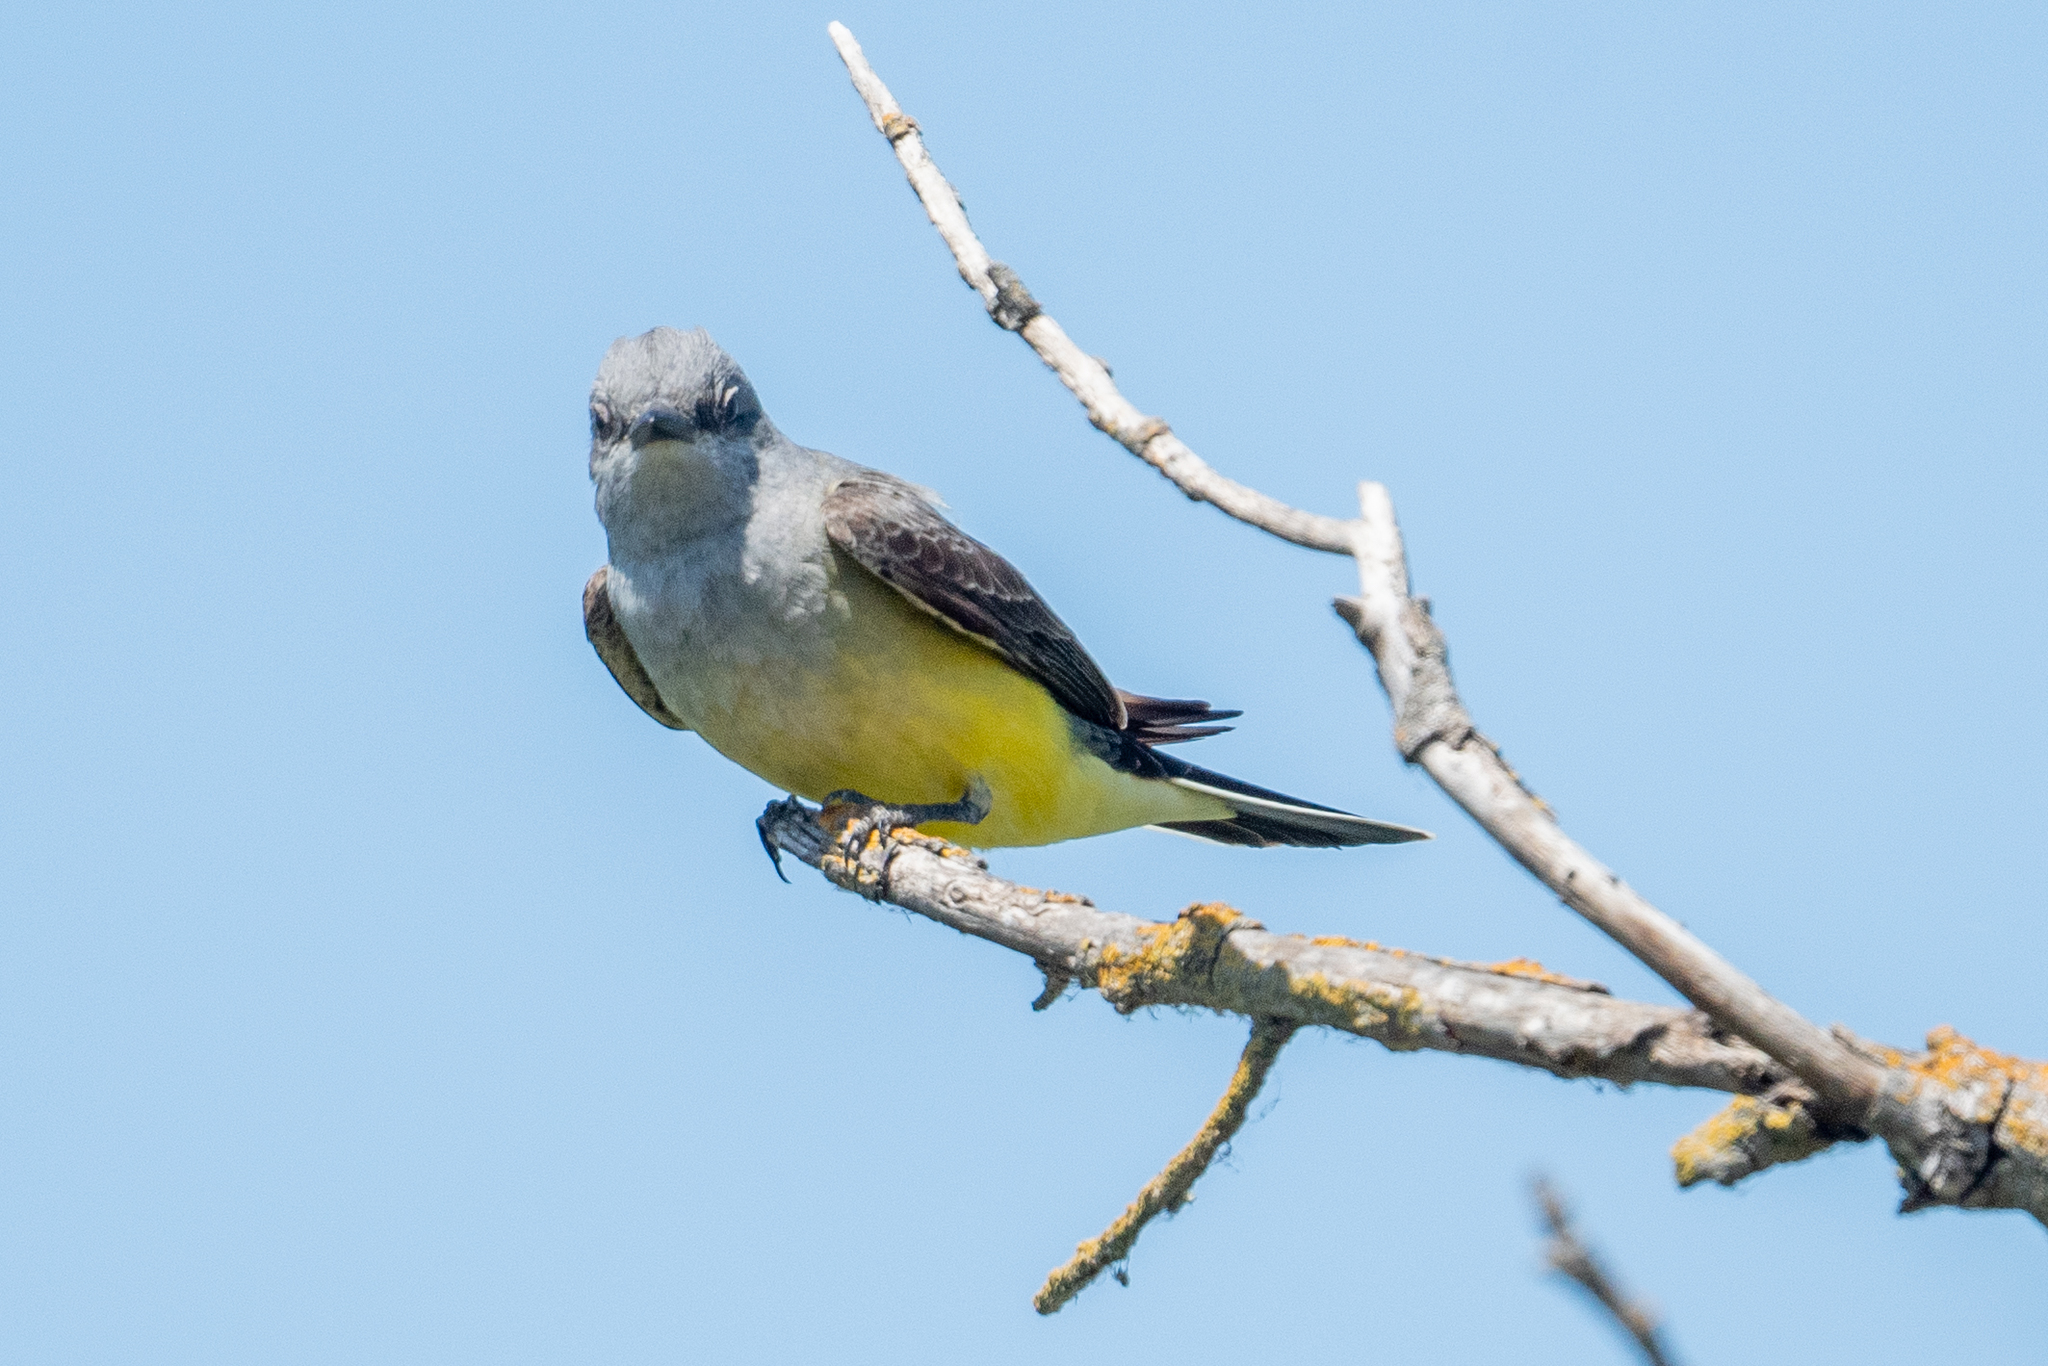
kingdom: Animalia
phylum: Chordata
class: Aves
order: Passeriformes
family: Tyrannidae
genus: Tyrannus
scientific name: Tyrannus verticalis
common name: Western kingbird
